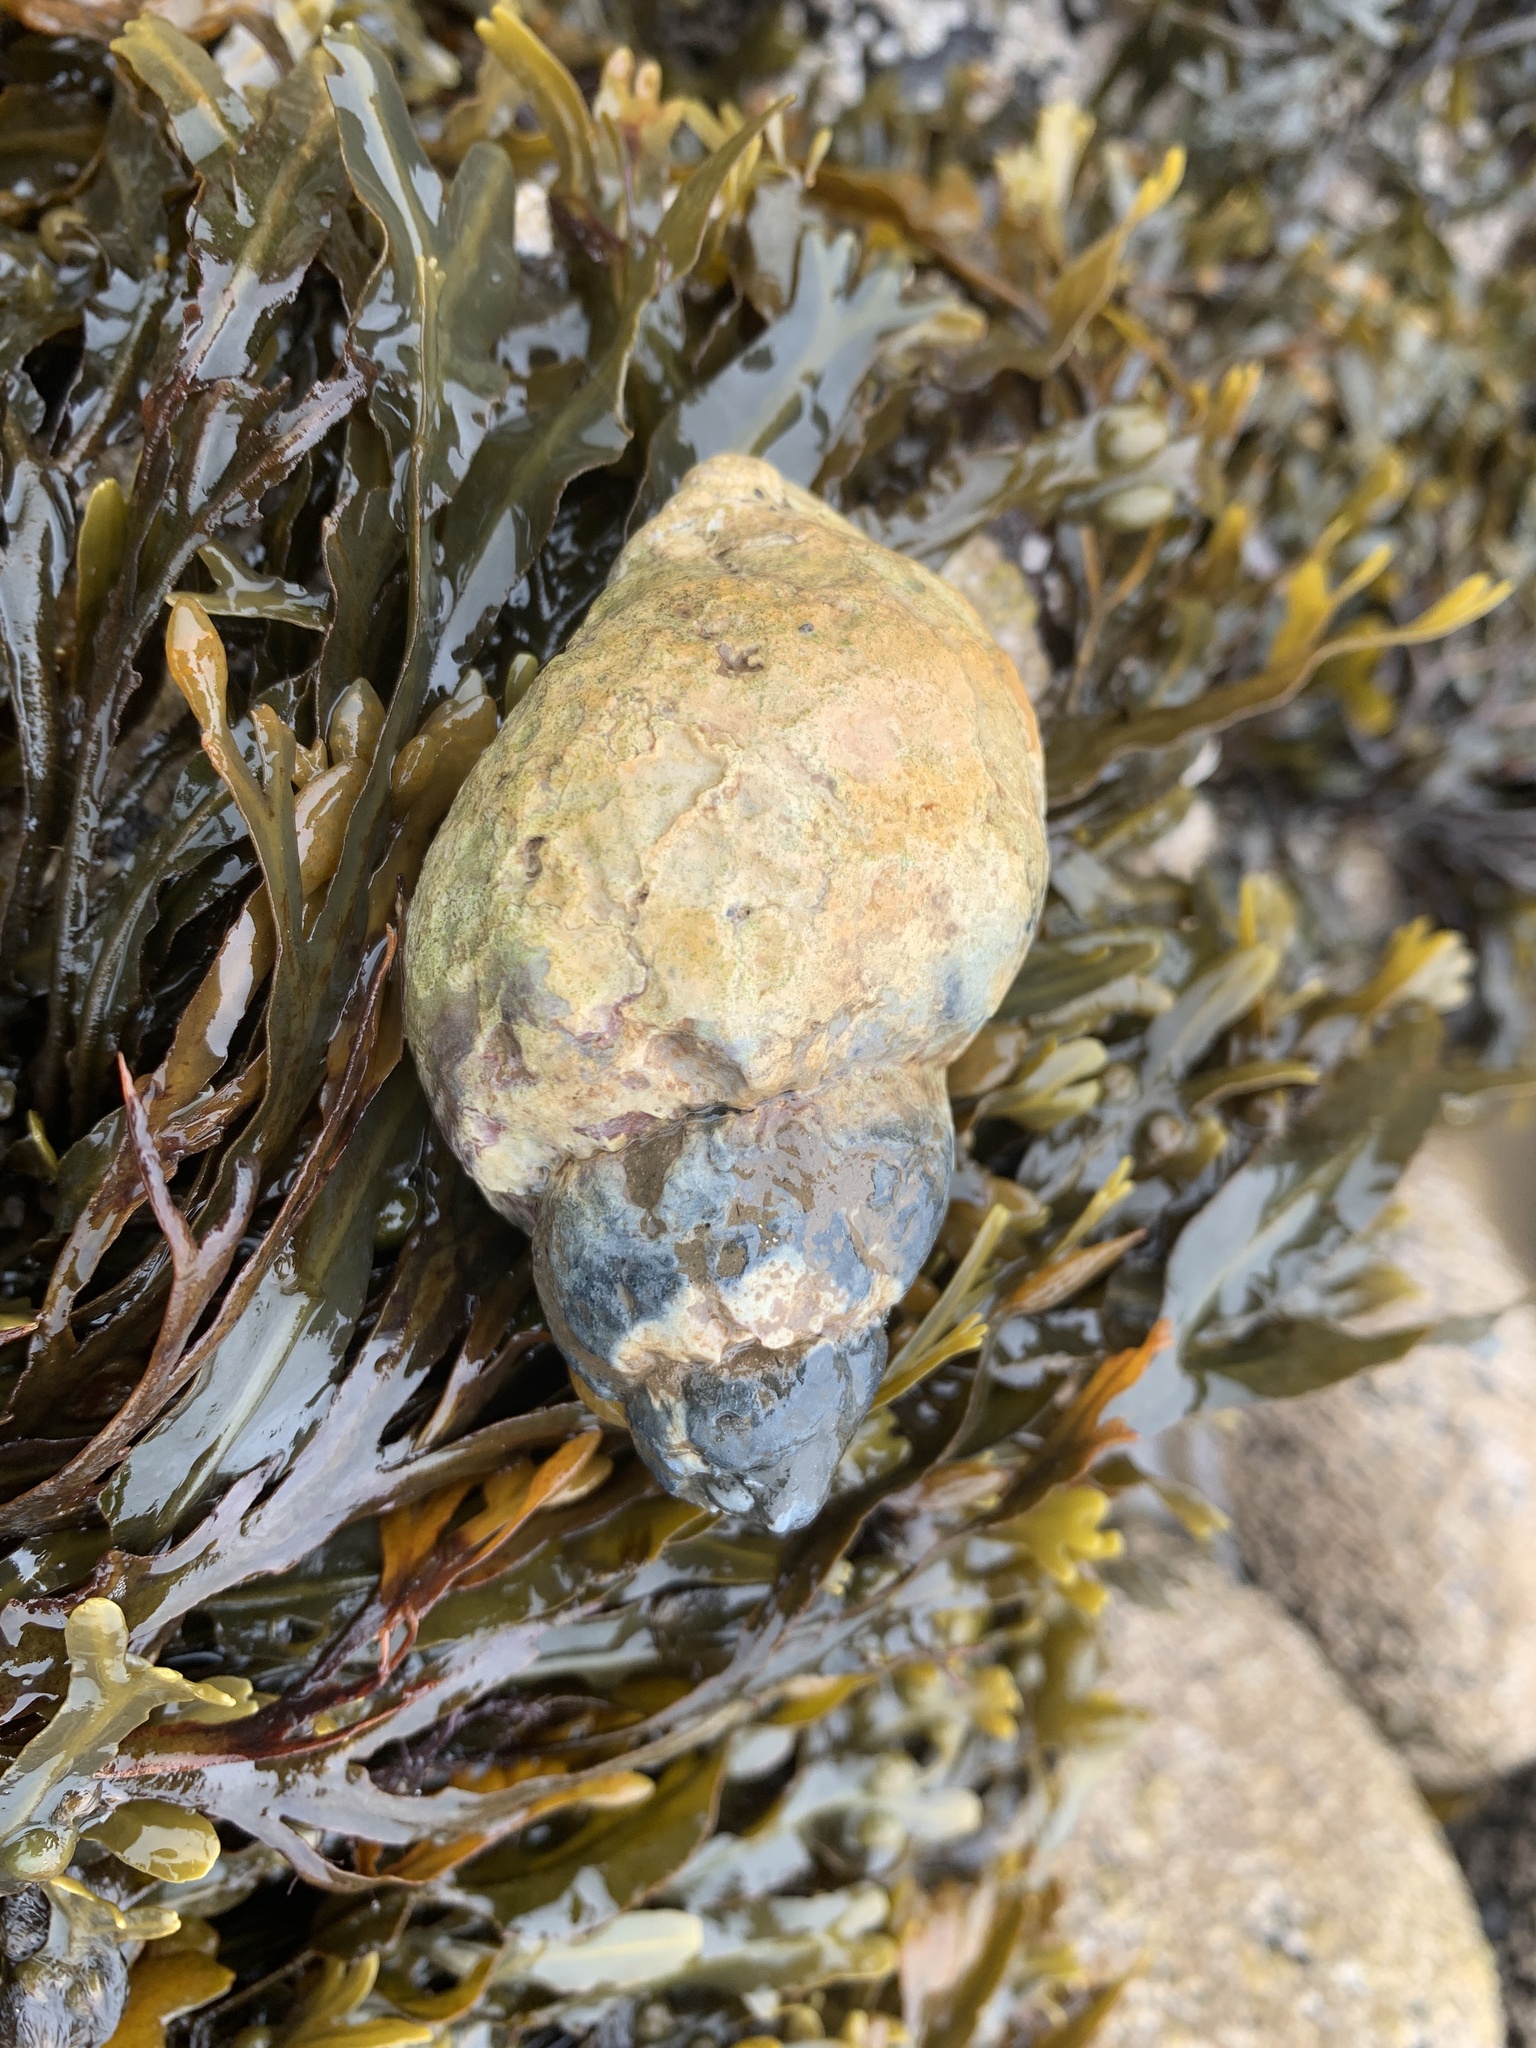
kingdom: Animalia
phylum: Mollusca
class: Gastropoda
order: Neogastropoda
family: Buccinidae
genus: Buccinum
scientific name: Buccinum undatum
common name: Common whelk
